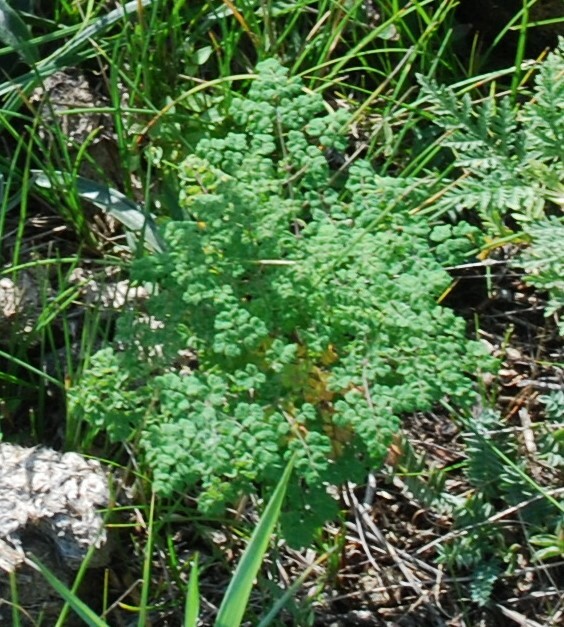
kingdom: Plantae
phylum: Tracheophyta
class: Magnoliopsida
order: Ranunculales
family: Ranunculaceae
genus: Thalictrum
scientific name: Thalictrum foetidum
